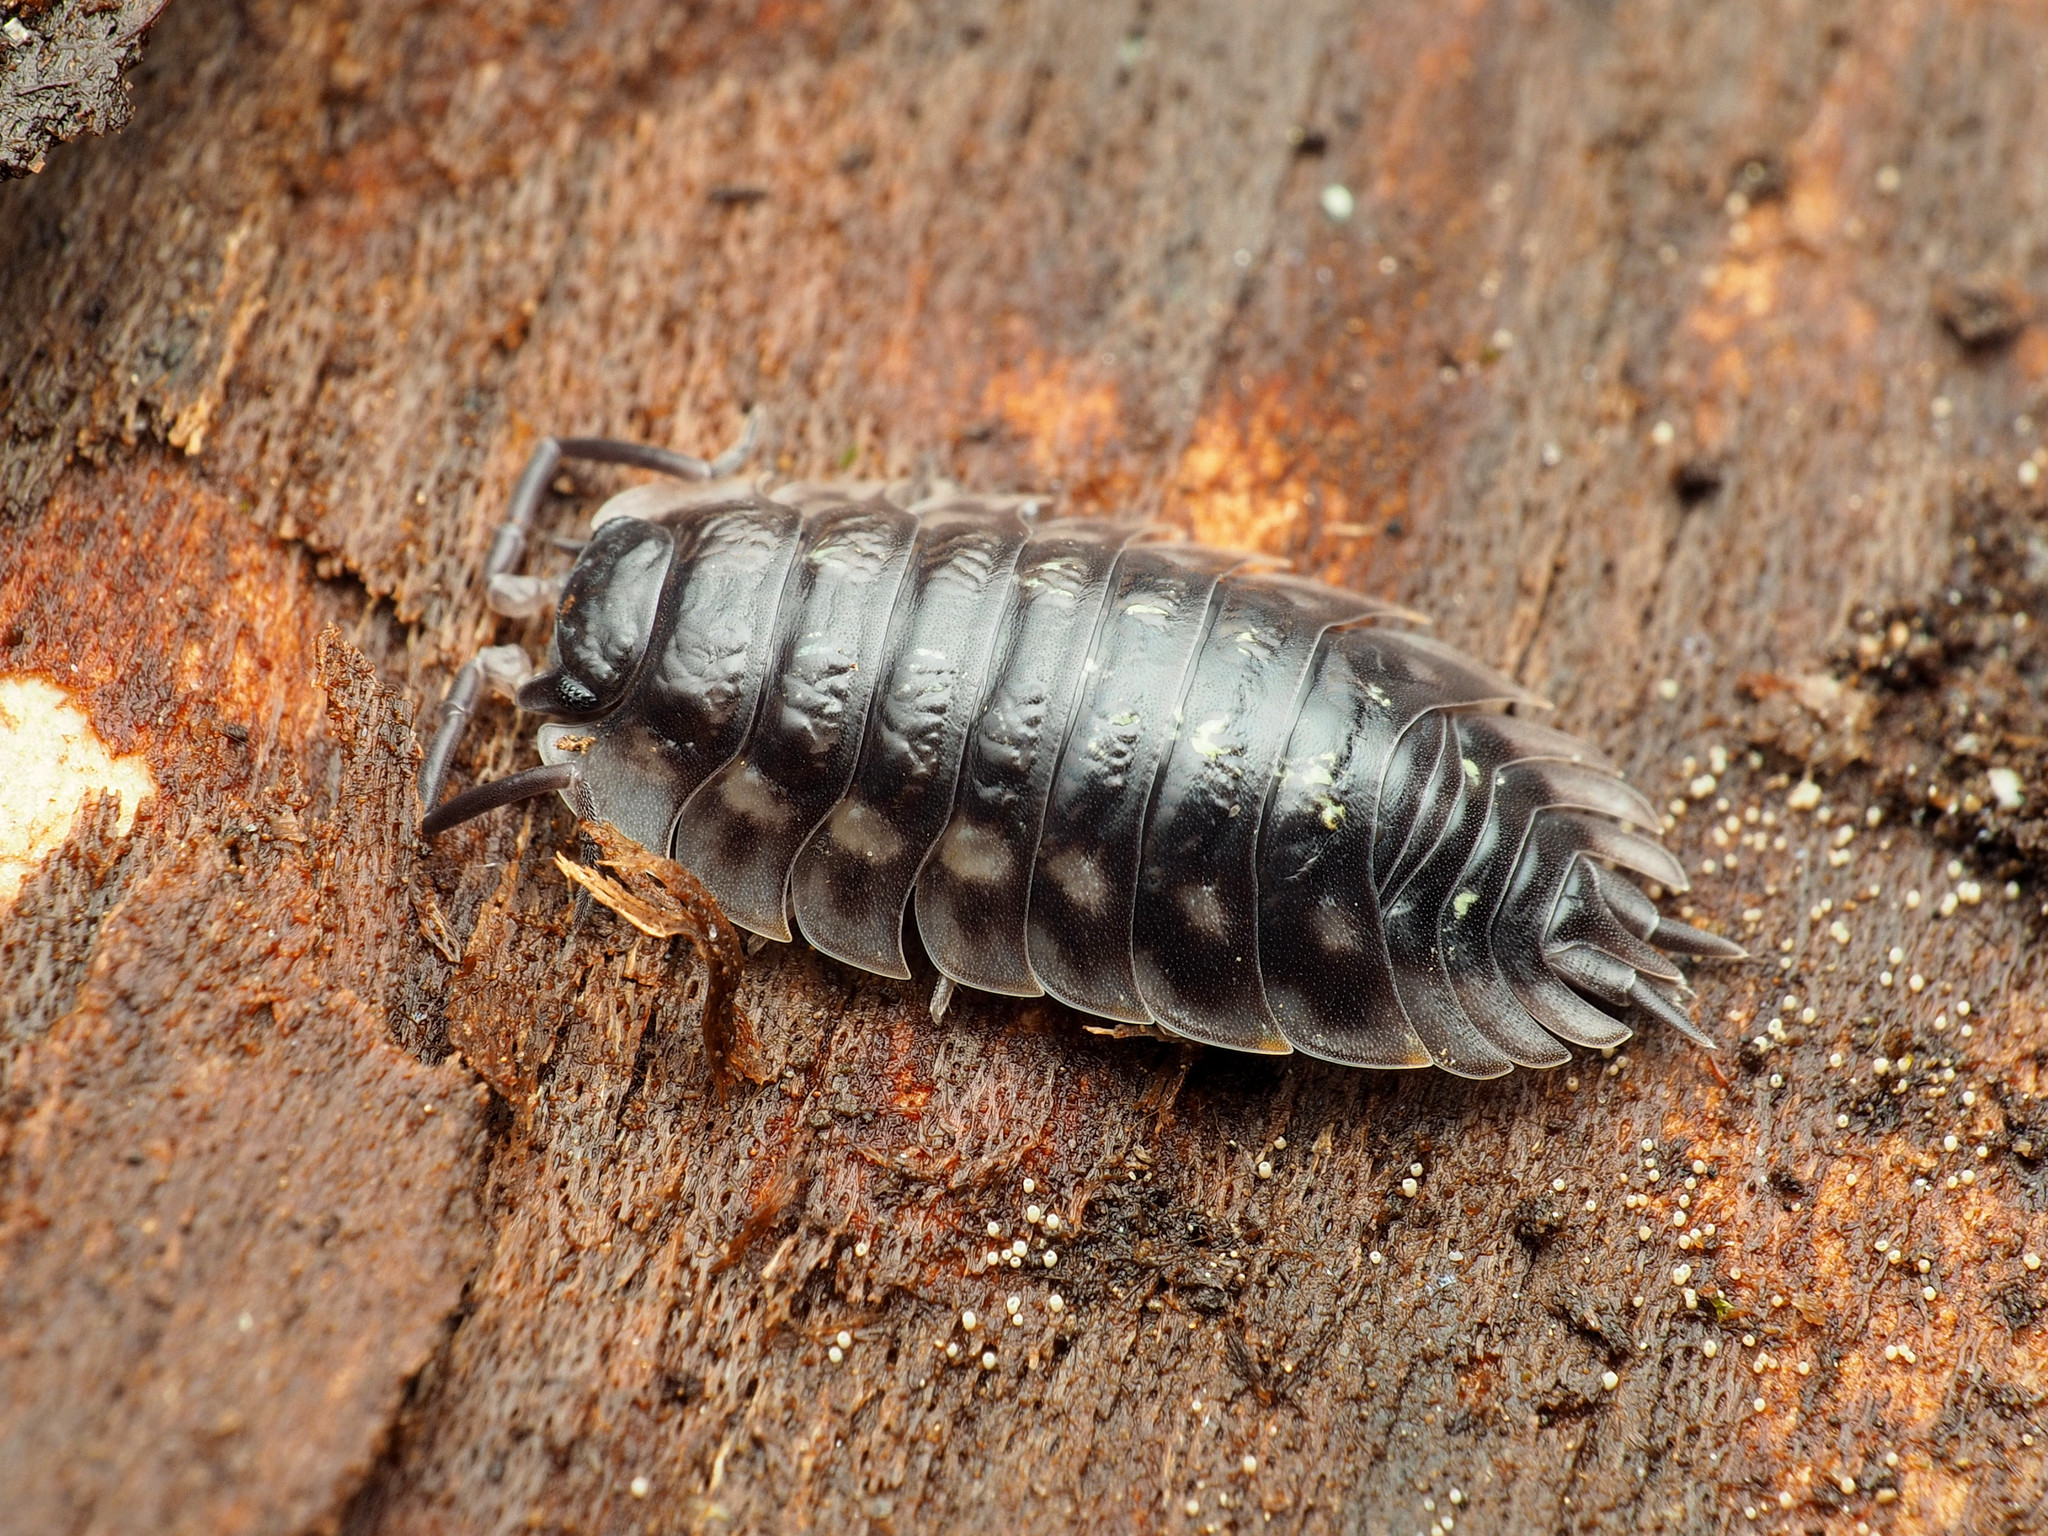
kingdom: Animalia
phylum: Arthropoda
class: Malacostraca
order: Isopoda
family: Oniscidae
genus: Oniscus
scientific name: Oniscus asellus
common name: Common shiny woodlouse
